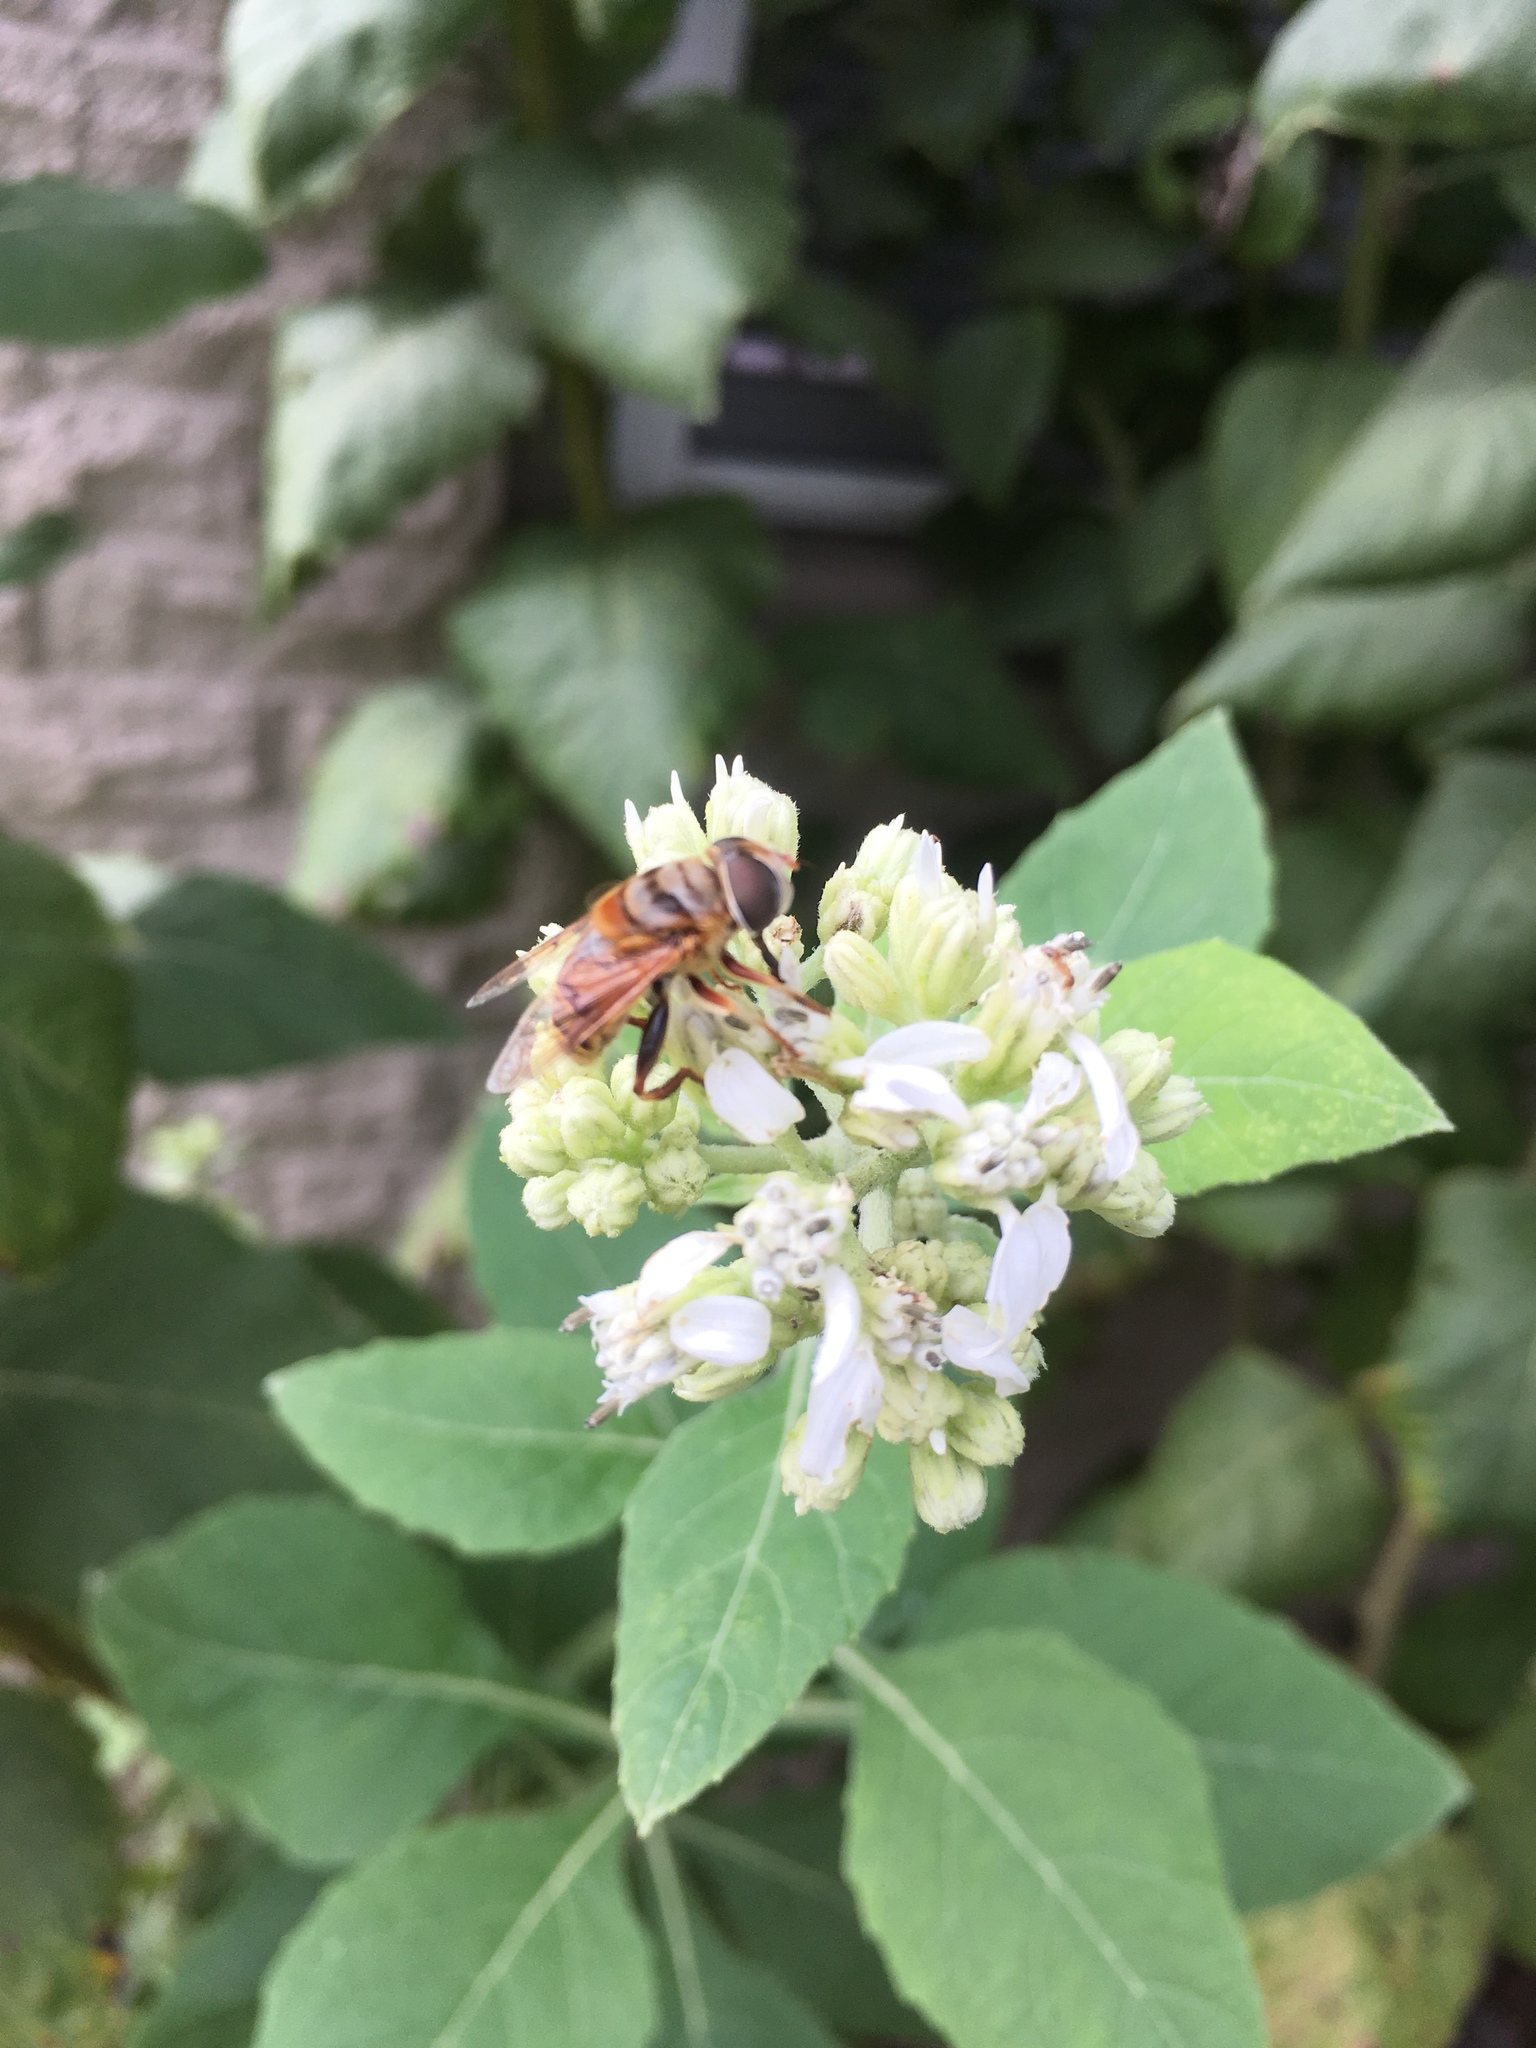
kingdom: Animalia
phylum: Arthropoda
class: Insecta
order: Diptera
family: Syrphidae
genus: Palpada
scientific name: Palpada vinetorum
